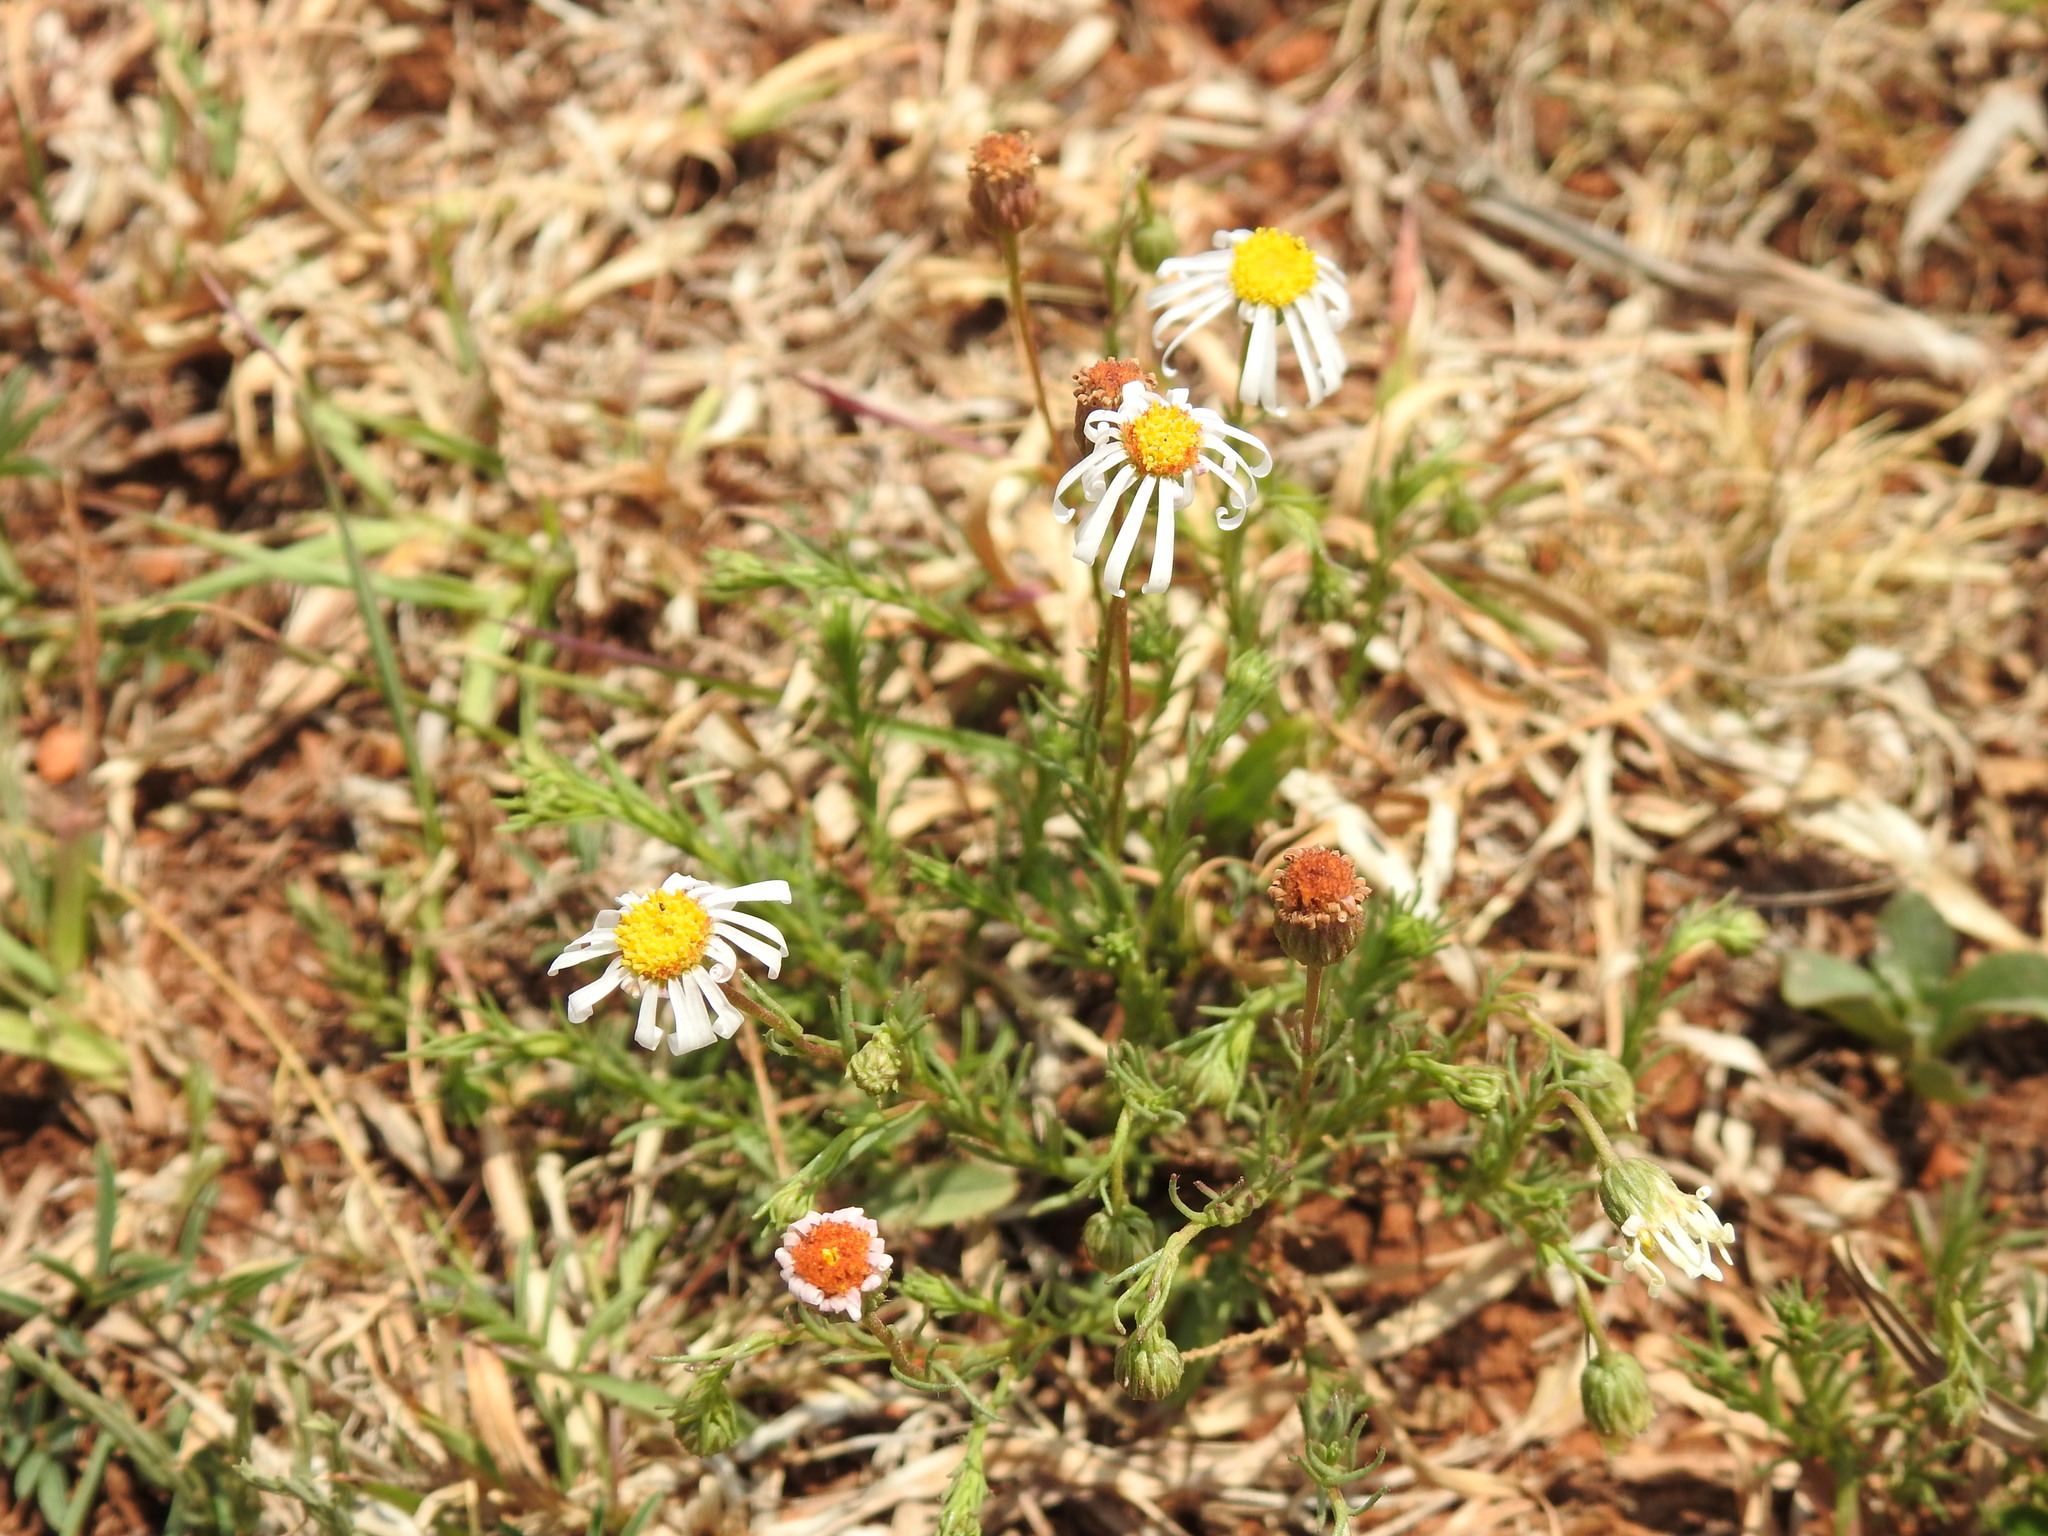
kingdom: Plantae
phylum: Tracheophyta
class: Magnoliopsida
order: Asterales
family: Asteraceae
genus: Felicia
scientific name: Felicia muricata
